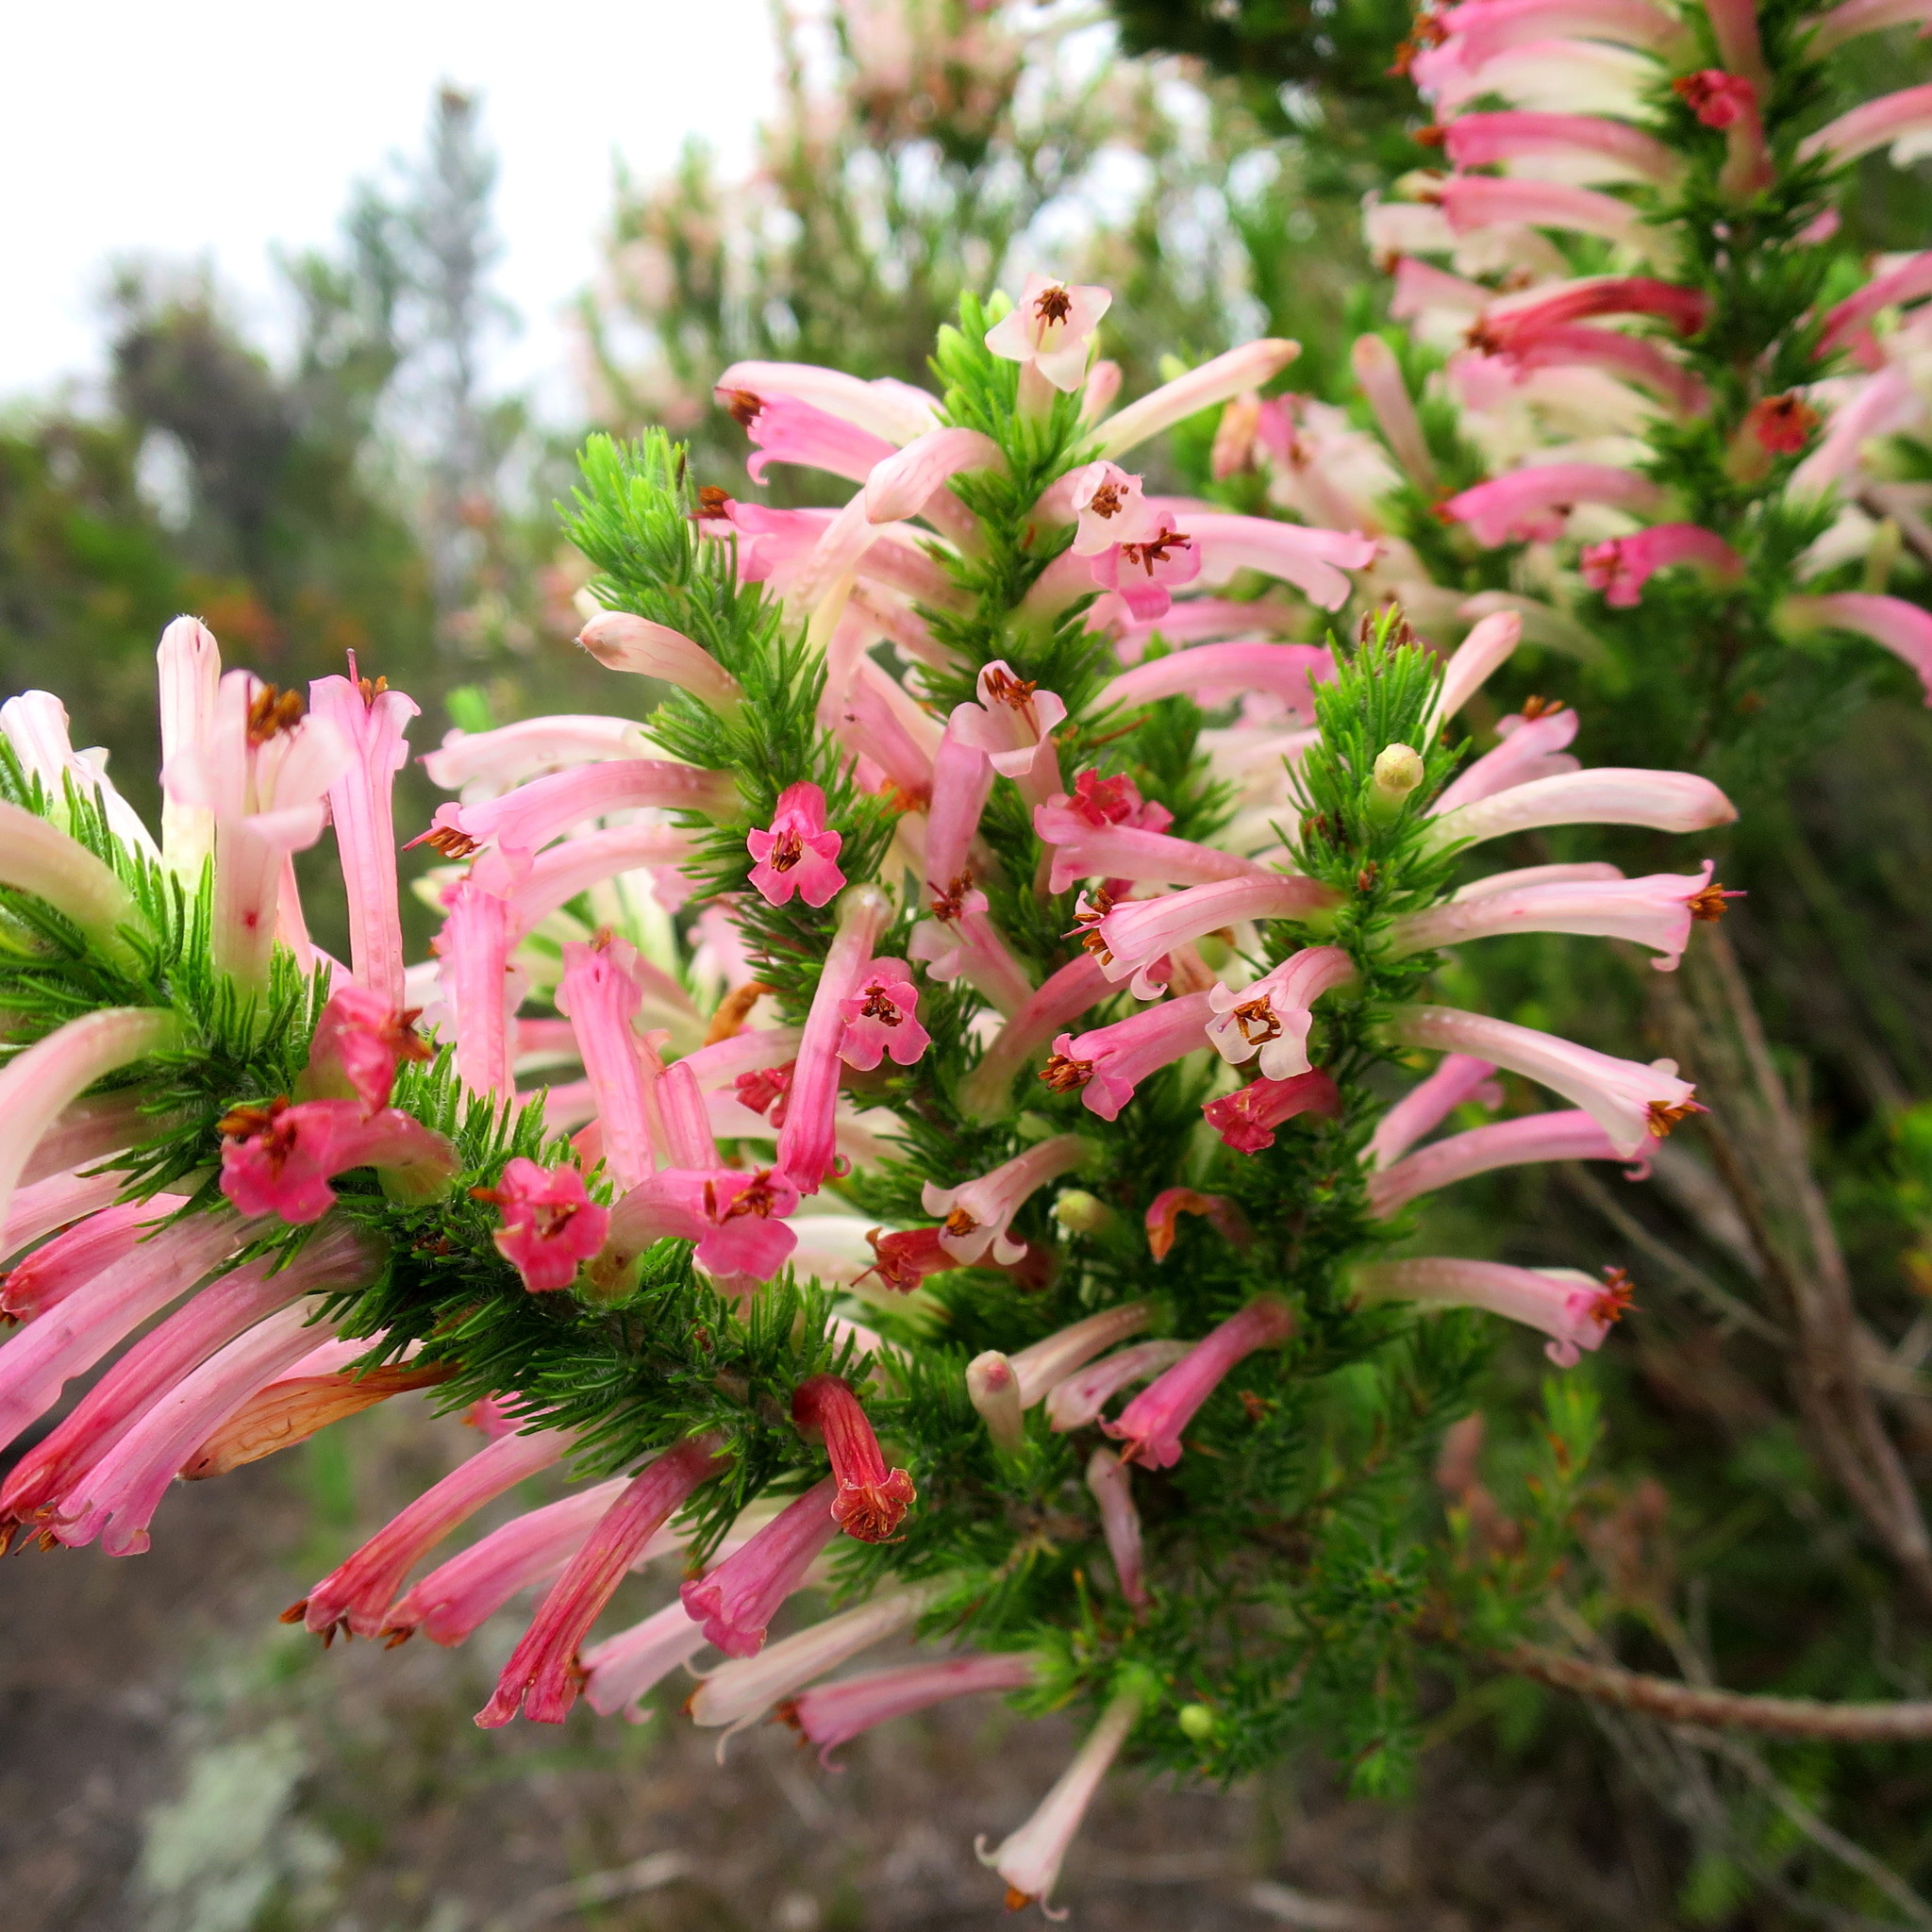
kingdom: Plantae
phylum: Tracheophyta
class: Magnoliopsida
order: Ericales
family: Ericaceae
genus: Erica
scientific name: Erica curviflora
